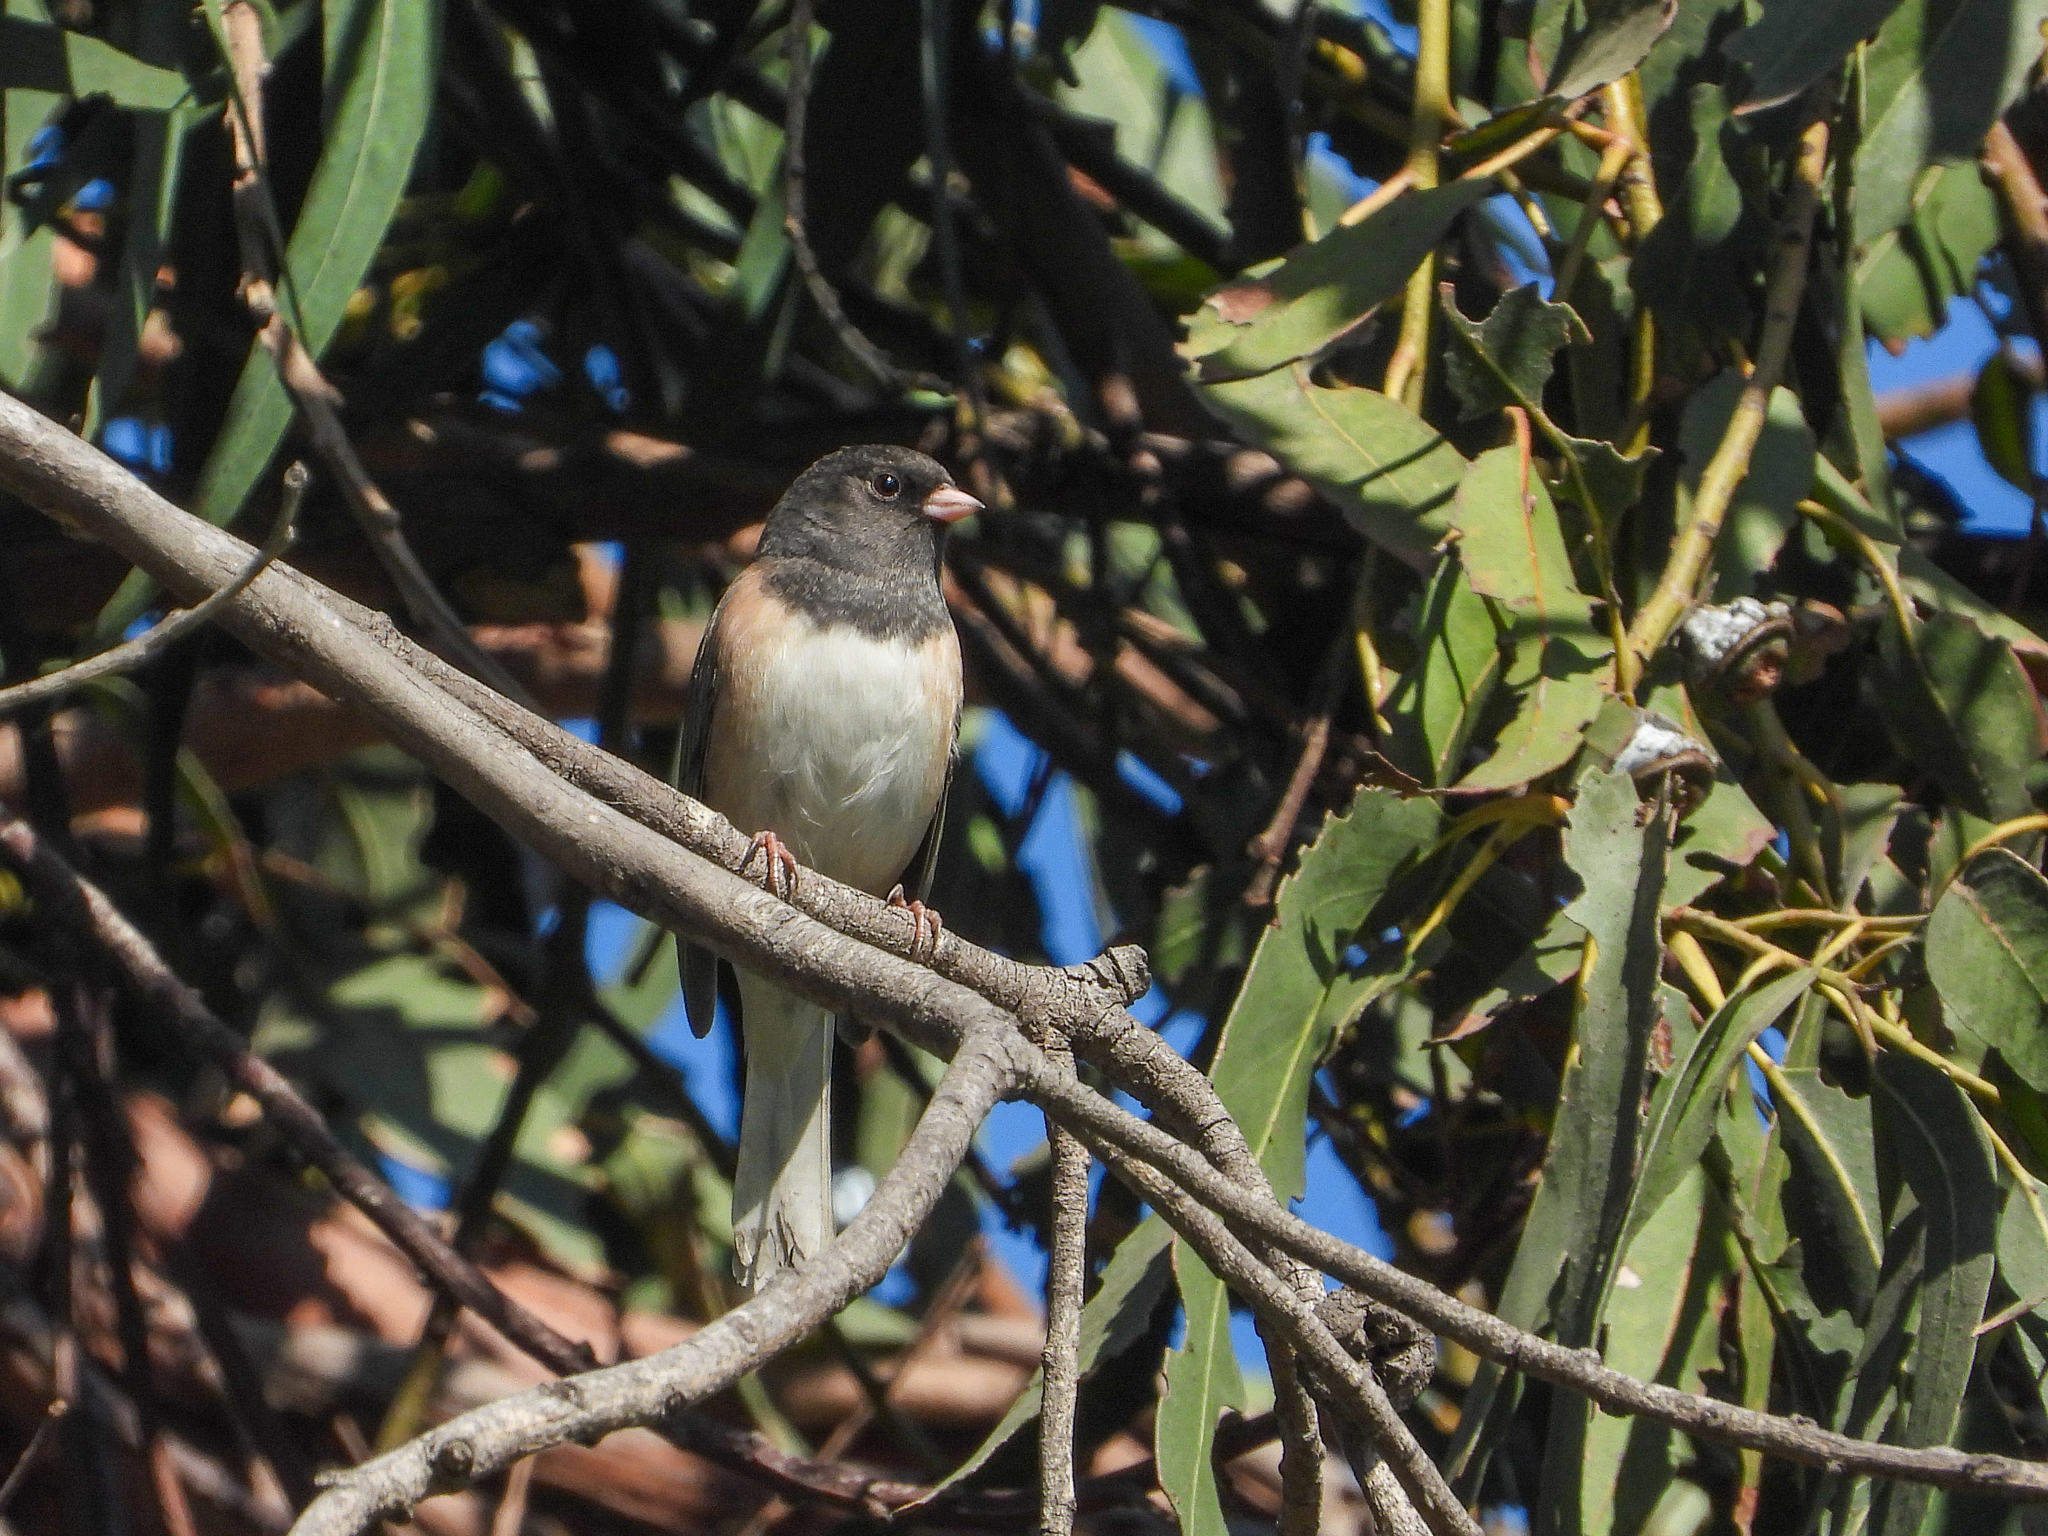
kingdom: Animalia
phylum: Chordata
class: Aves
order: Passeriformes
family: Passerellidae
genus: Junco
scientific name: Junco hyemalis
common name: Dark-eyed junco
